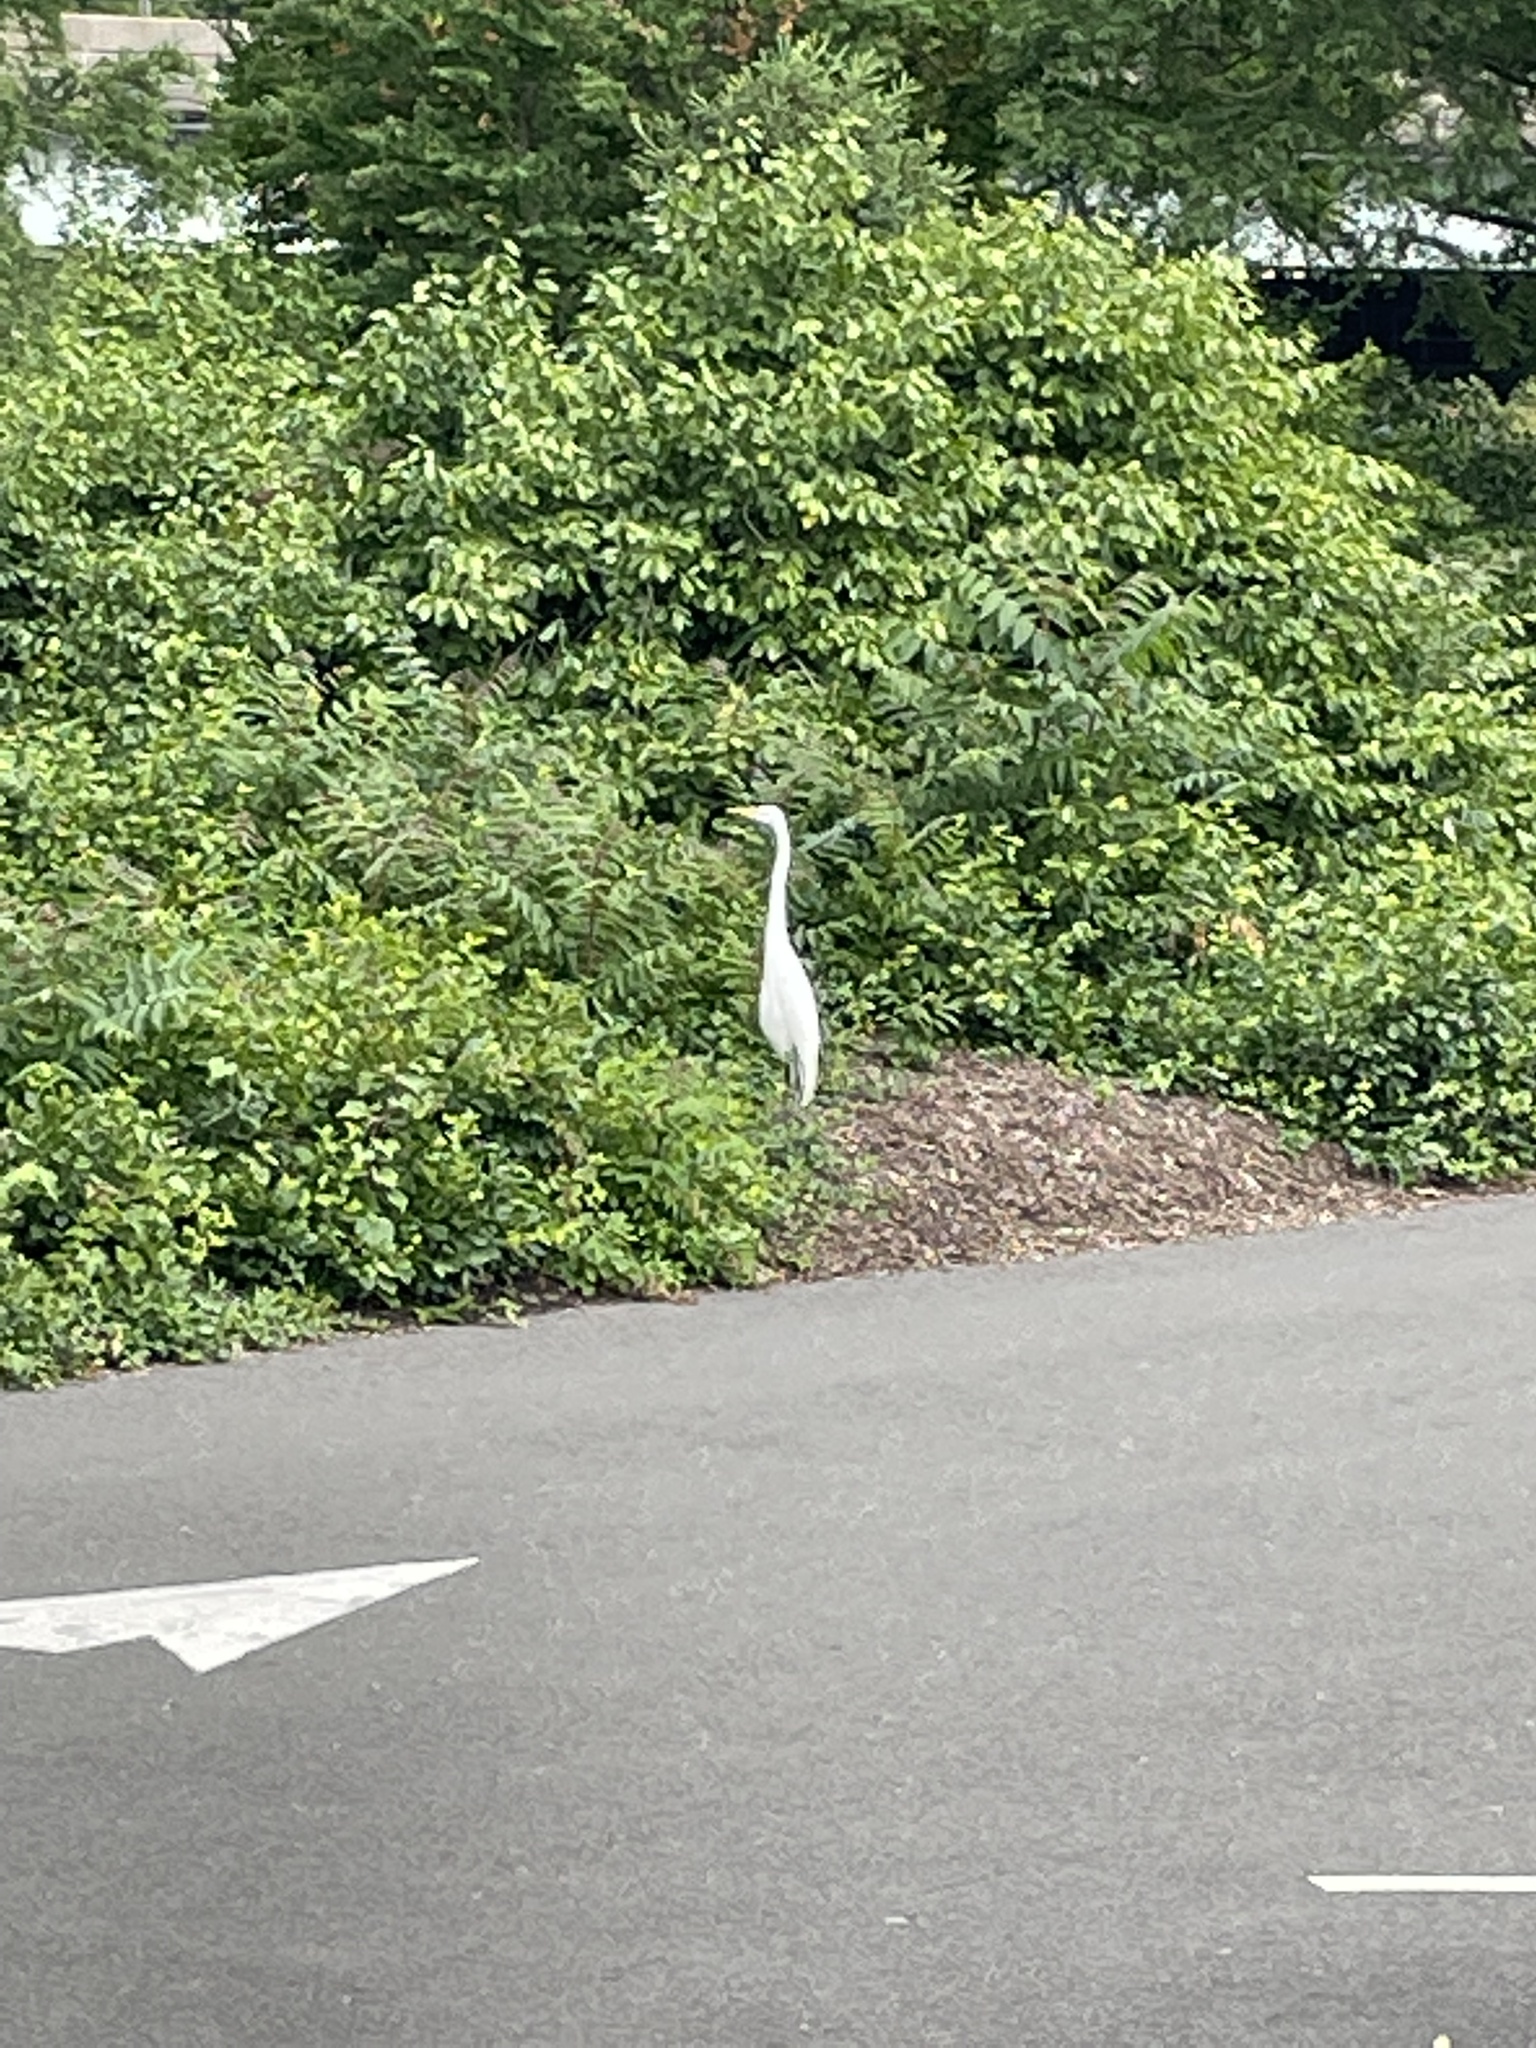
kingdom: Animalia
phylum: Chordata
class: Aves
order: Pelecaniformes
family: Ardeidae
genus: Ardea
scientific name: Ardea alba
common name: Great egret
